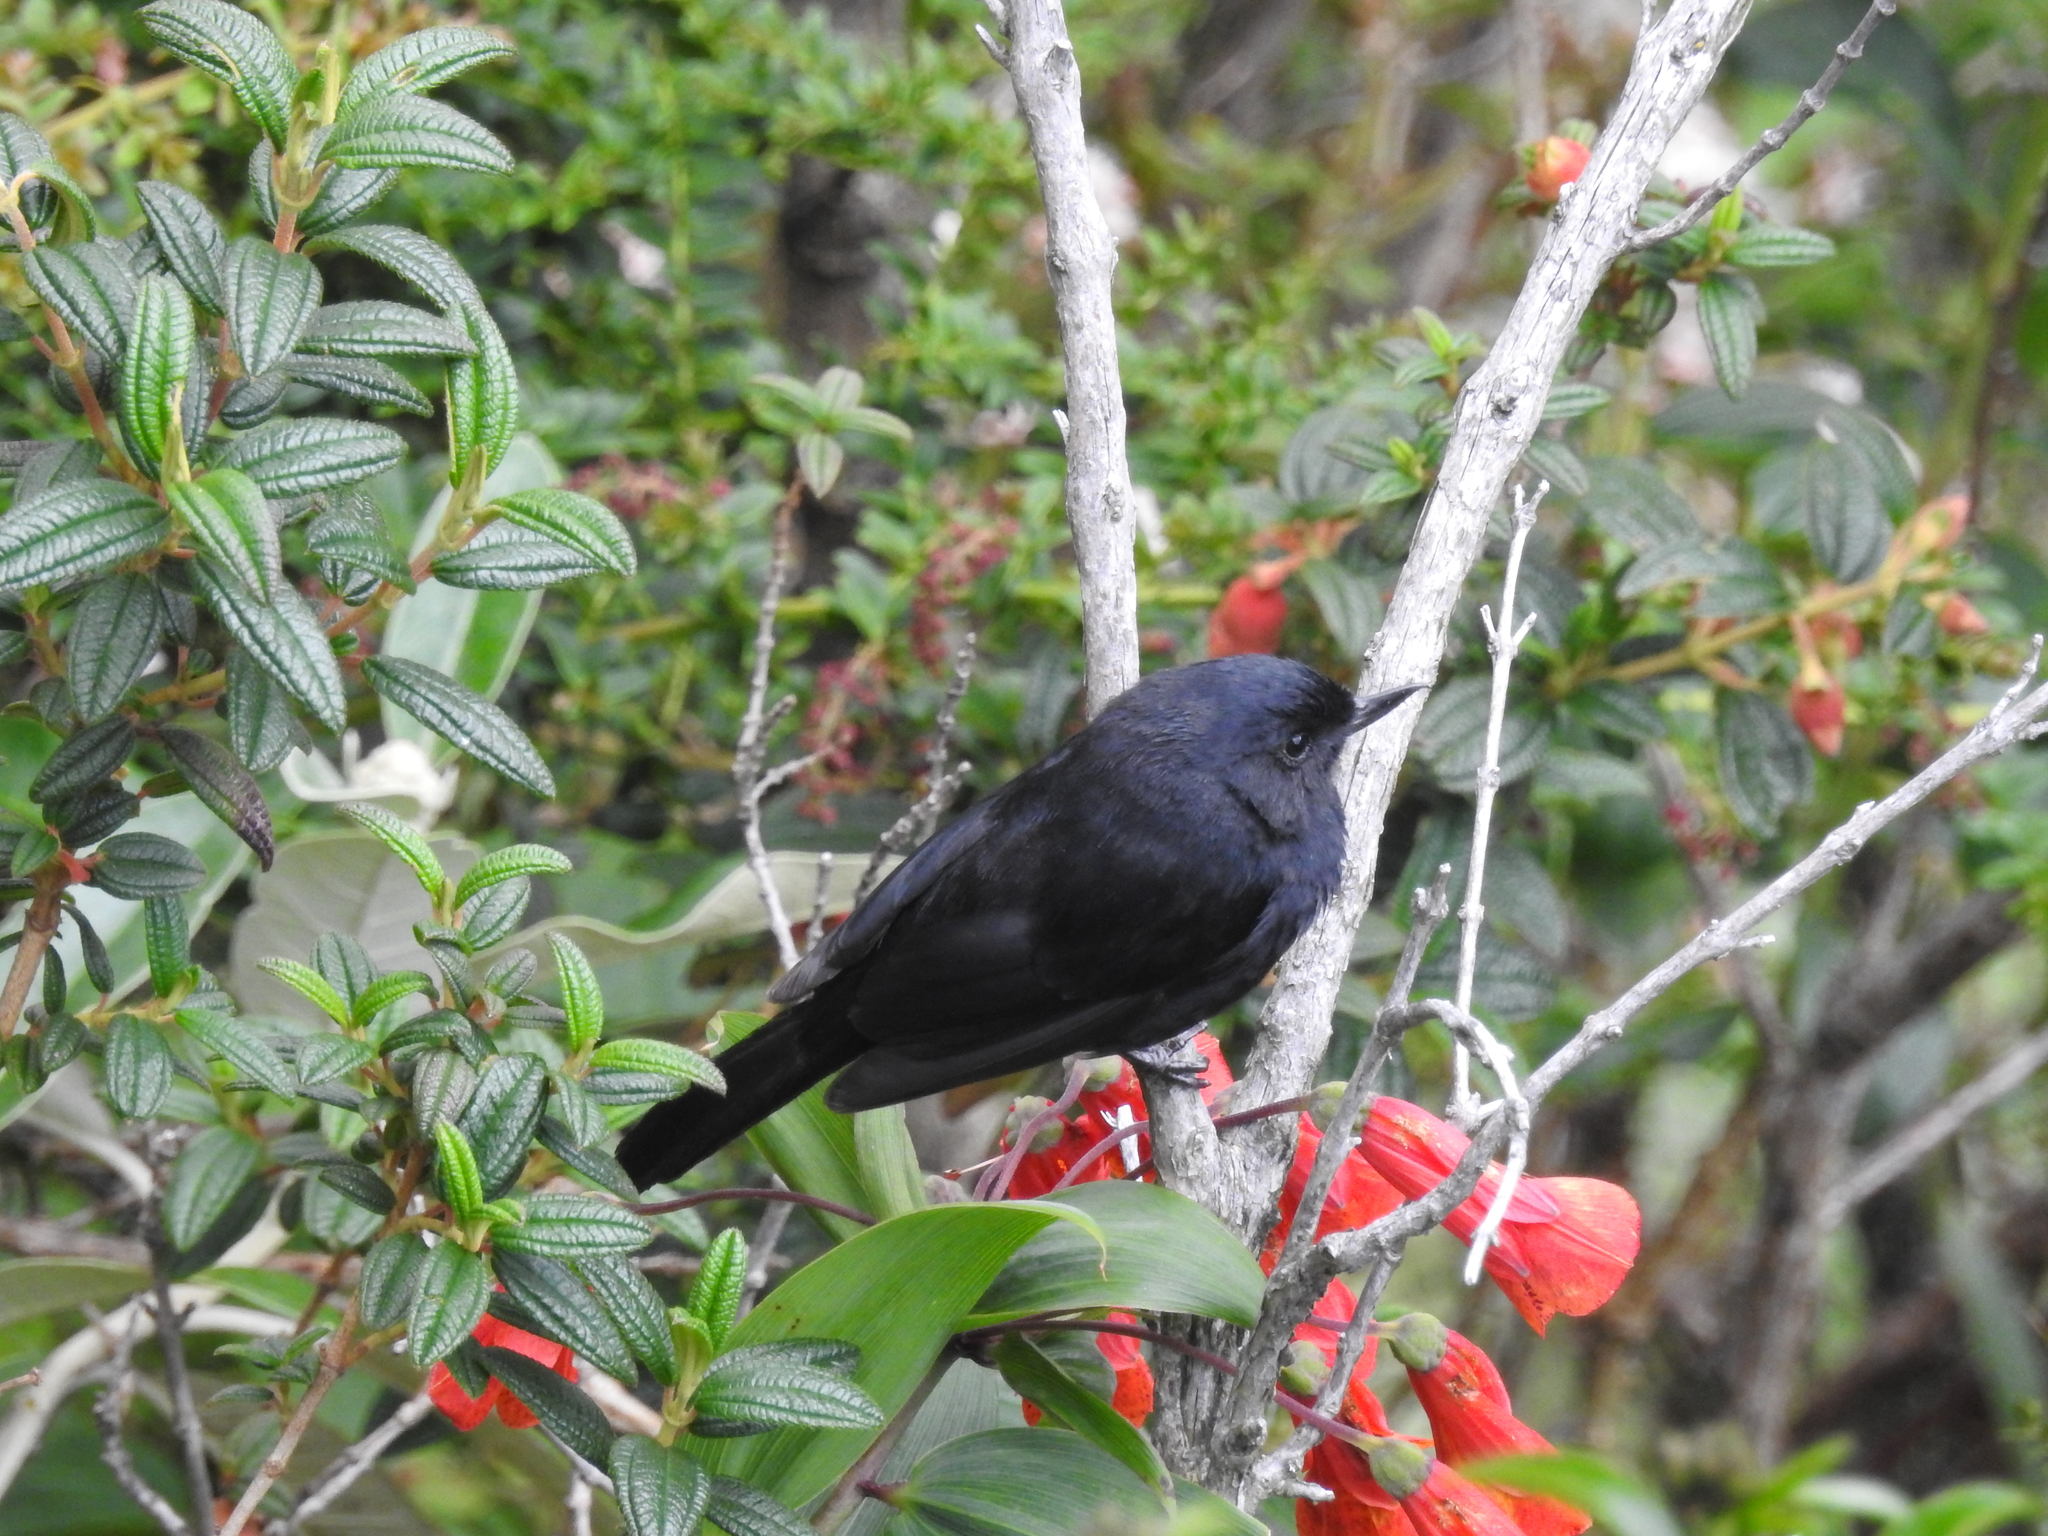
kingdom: Animalia
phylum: Chordata
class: Aves
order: Passeriformes
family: Thraupidae
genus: Diglossa
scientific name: Diglossa humeralis
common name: Black flowerpiercer
